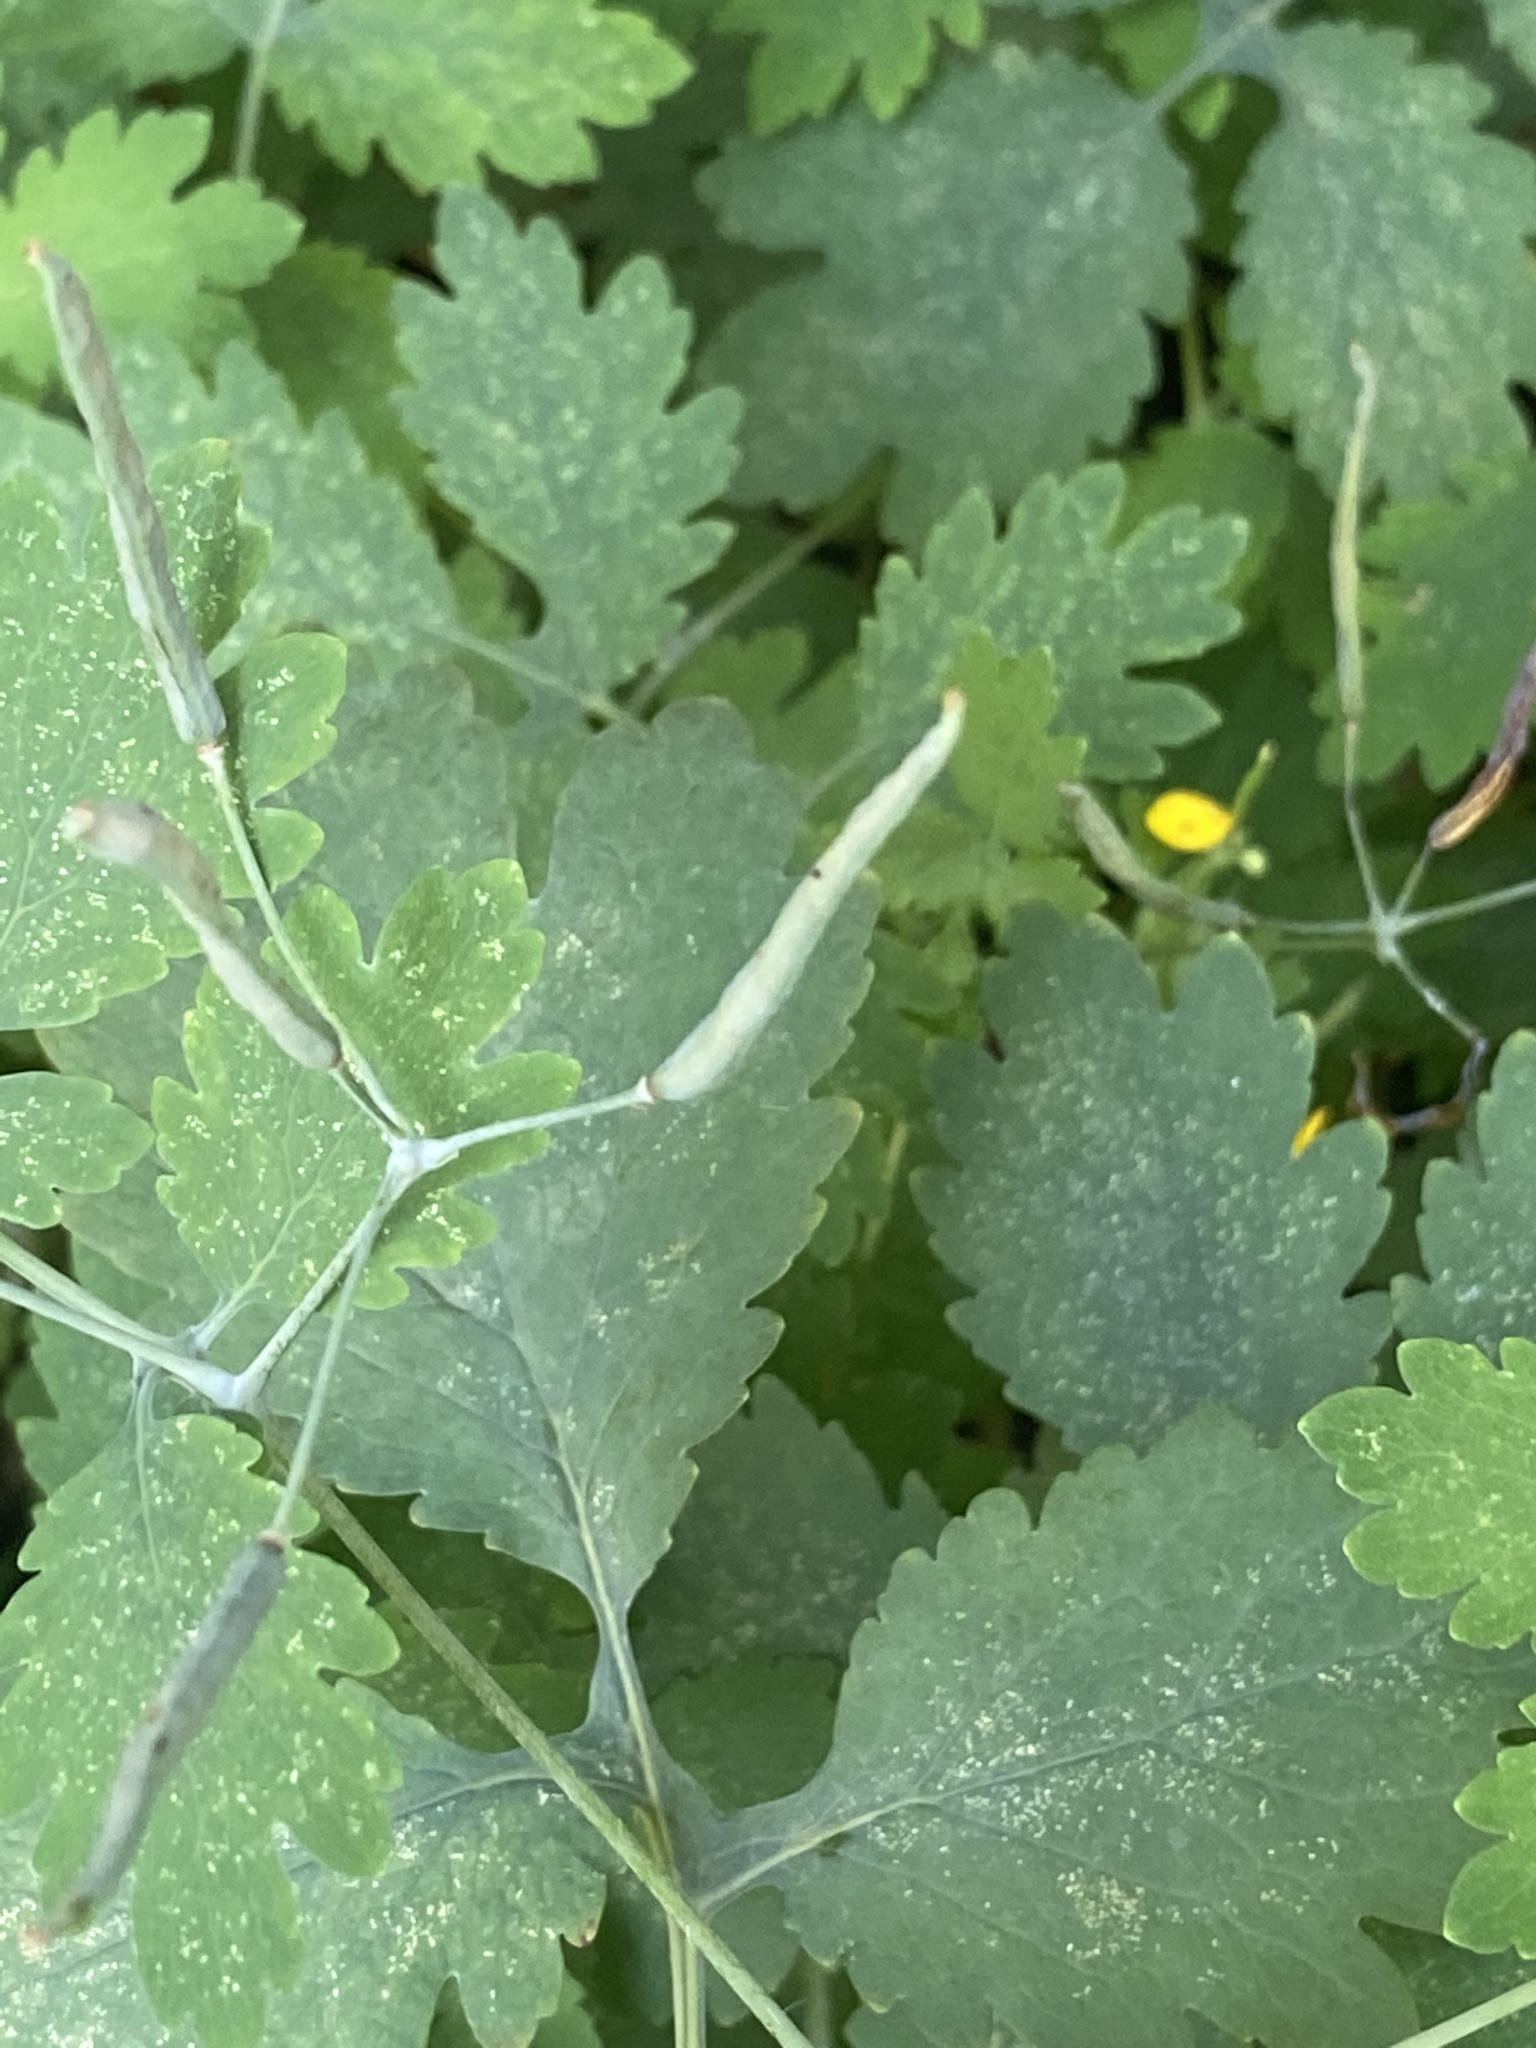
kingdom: Plantae
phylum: Tracheophyta
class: Magnoliopsida
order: Ranunculales
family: Papaveraceae
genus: Chelidonium
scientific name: Chelidonium majus
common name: Greater celandine
